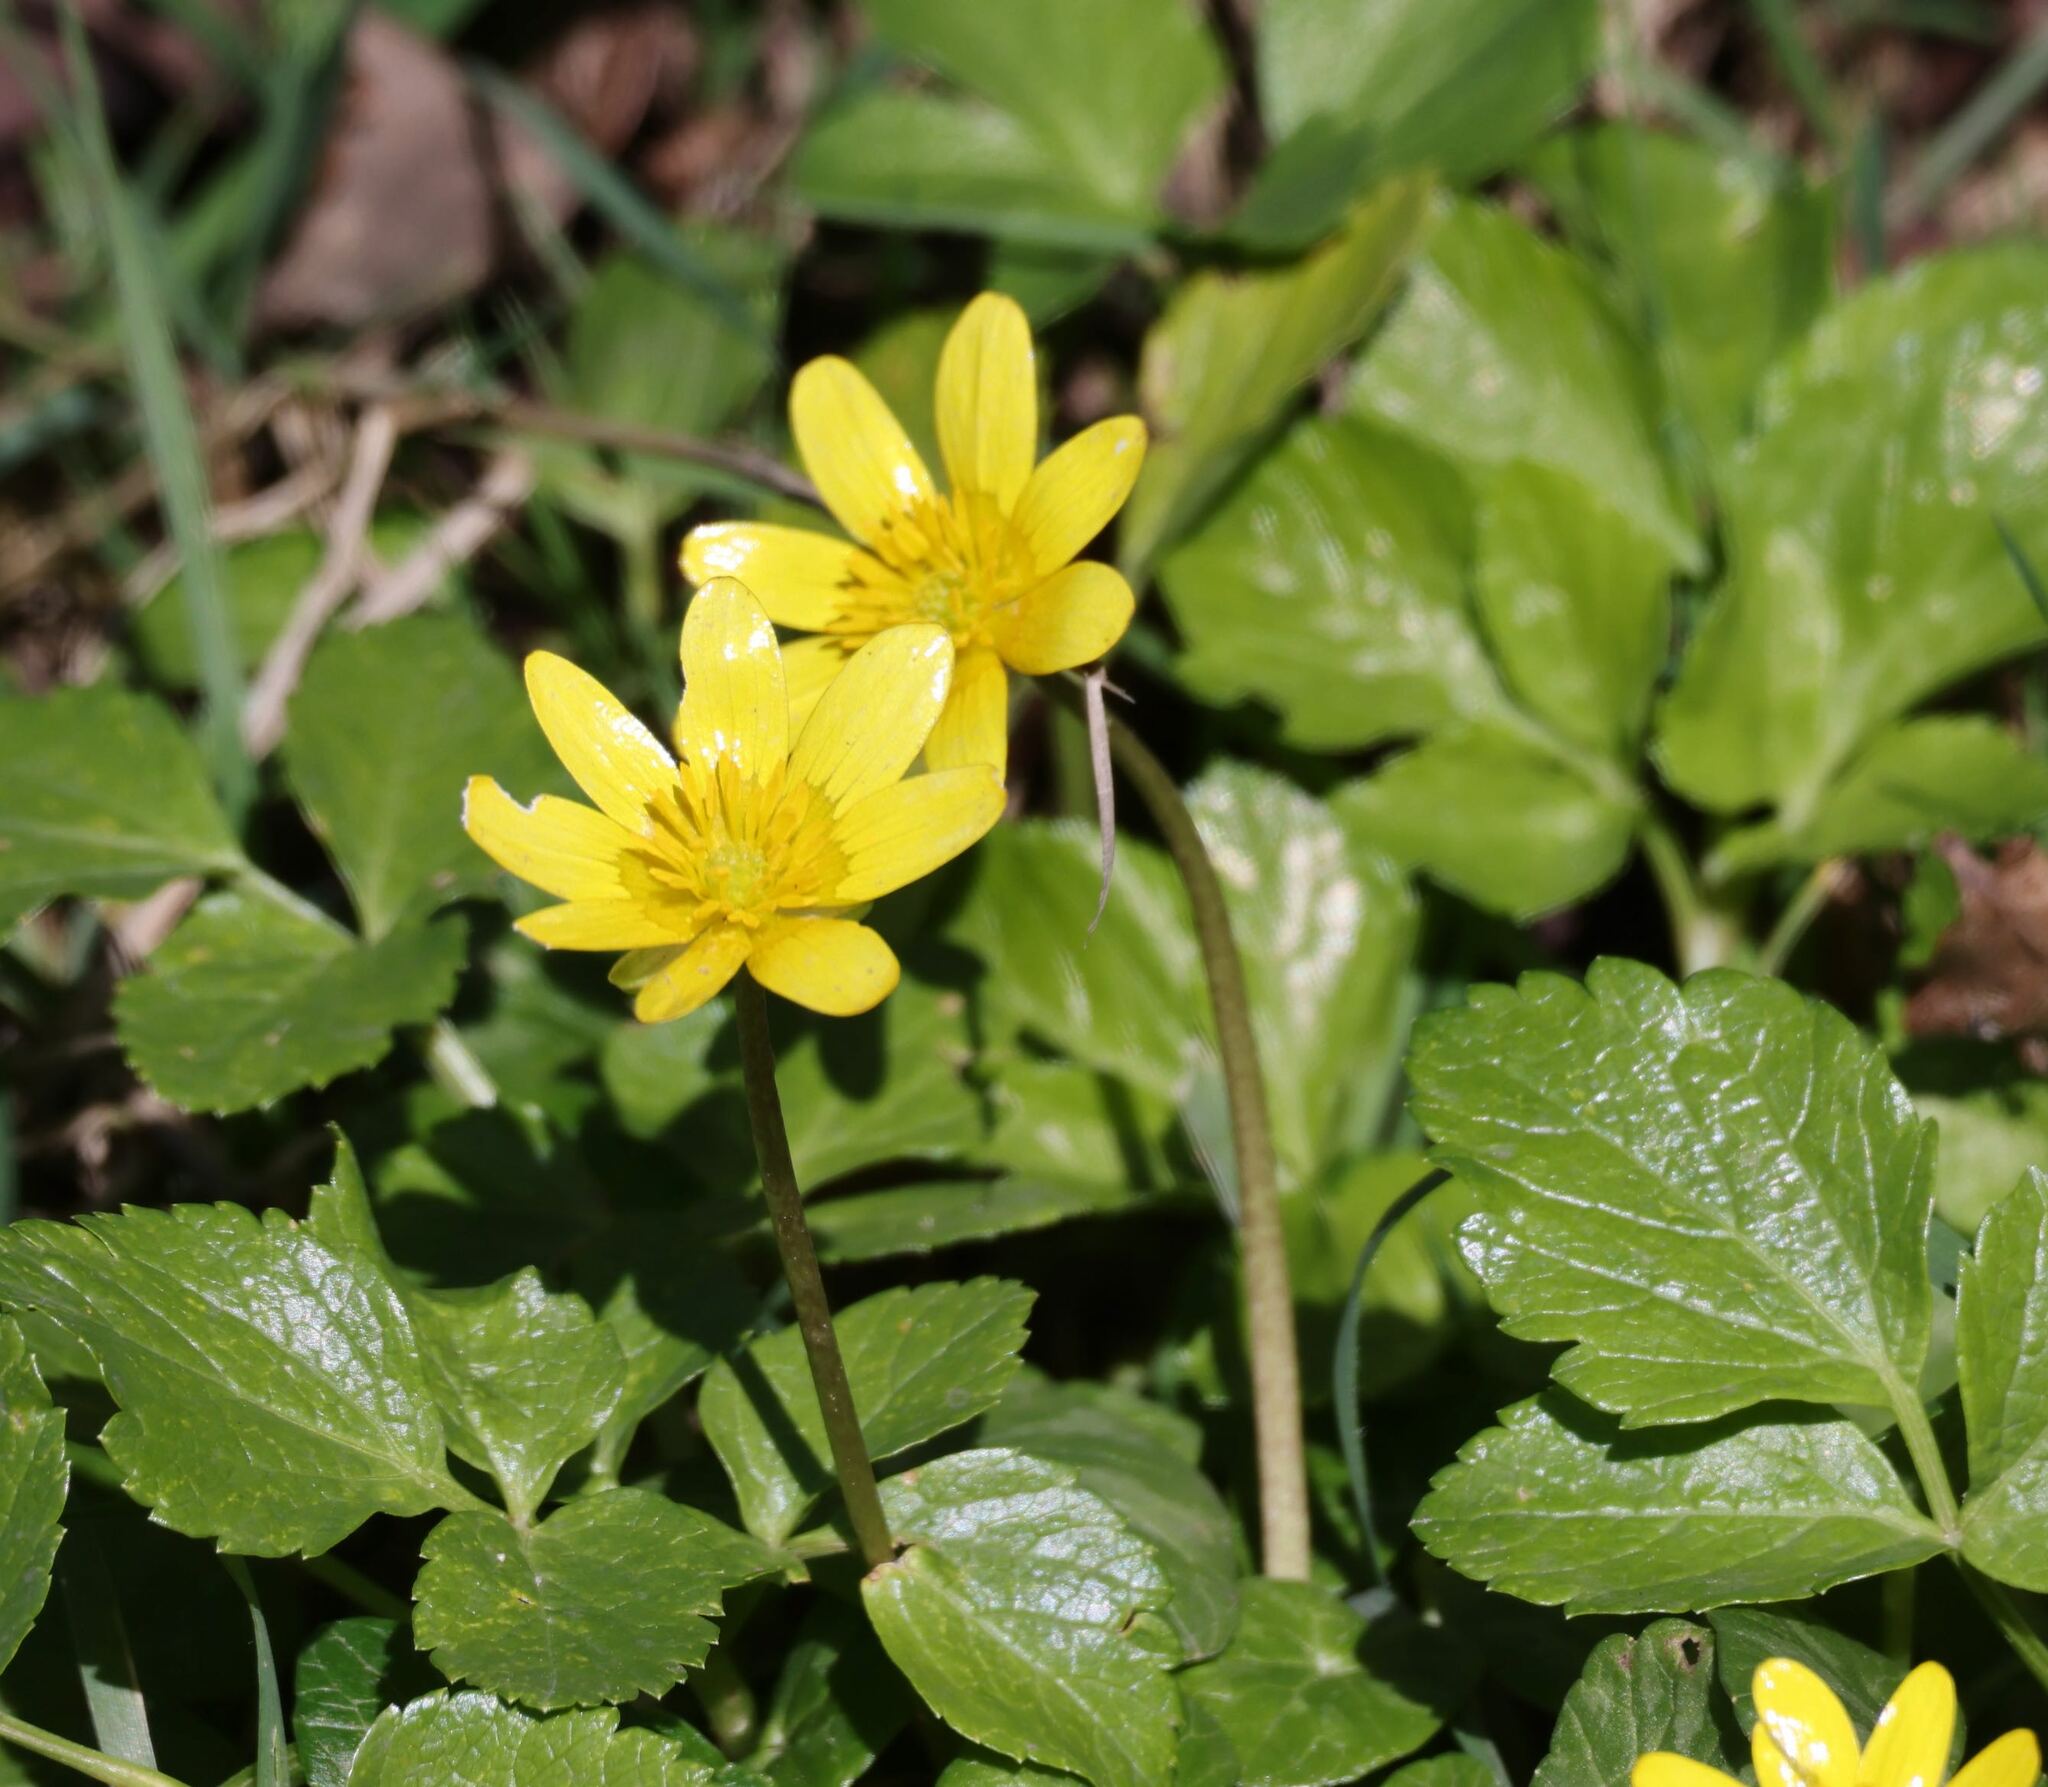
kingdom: Plantae
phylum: Tracheophyta
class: Magnoliopsida
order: Ranunculales
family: Ranunculaceae
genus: Ficaria
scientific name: Ficaria verna
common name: Lesser celandine
